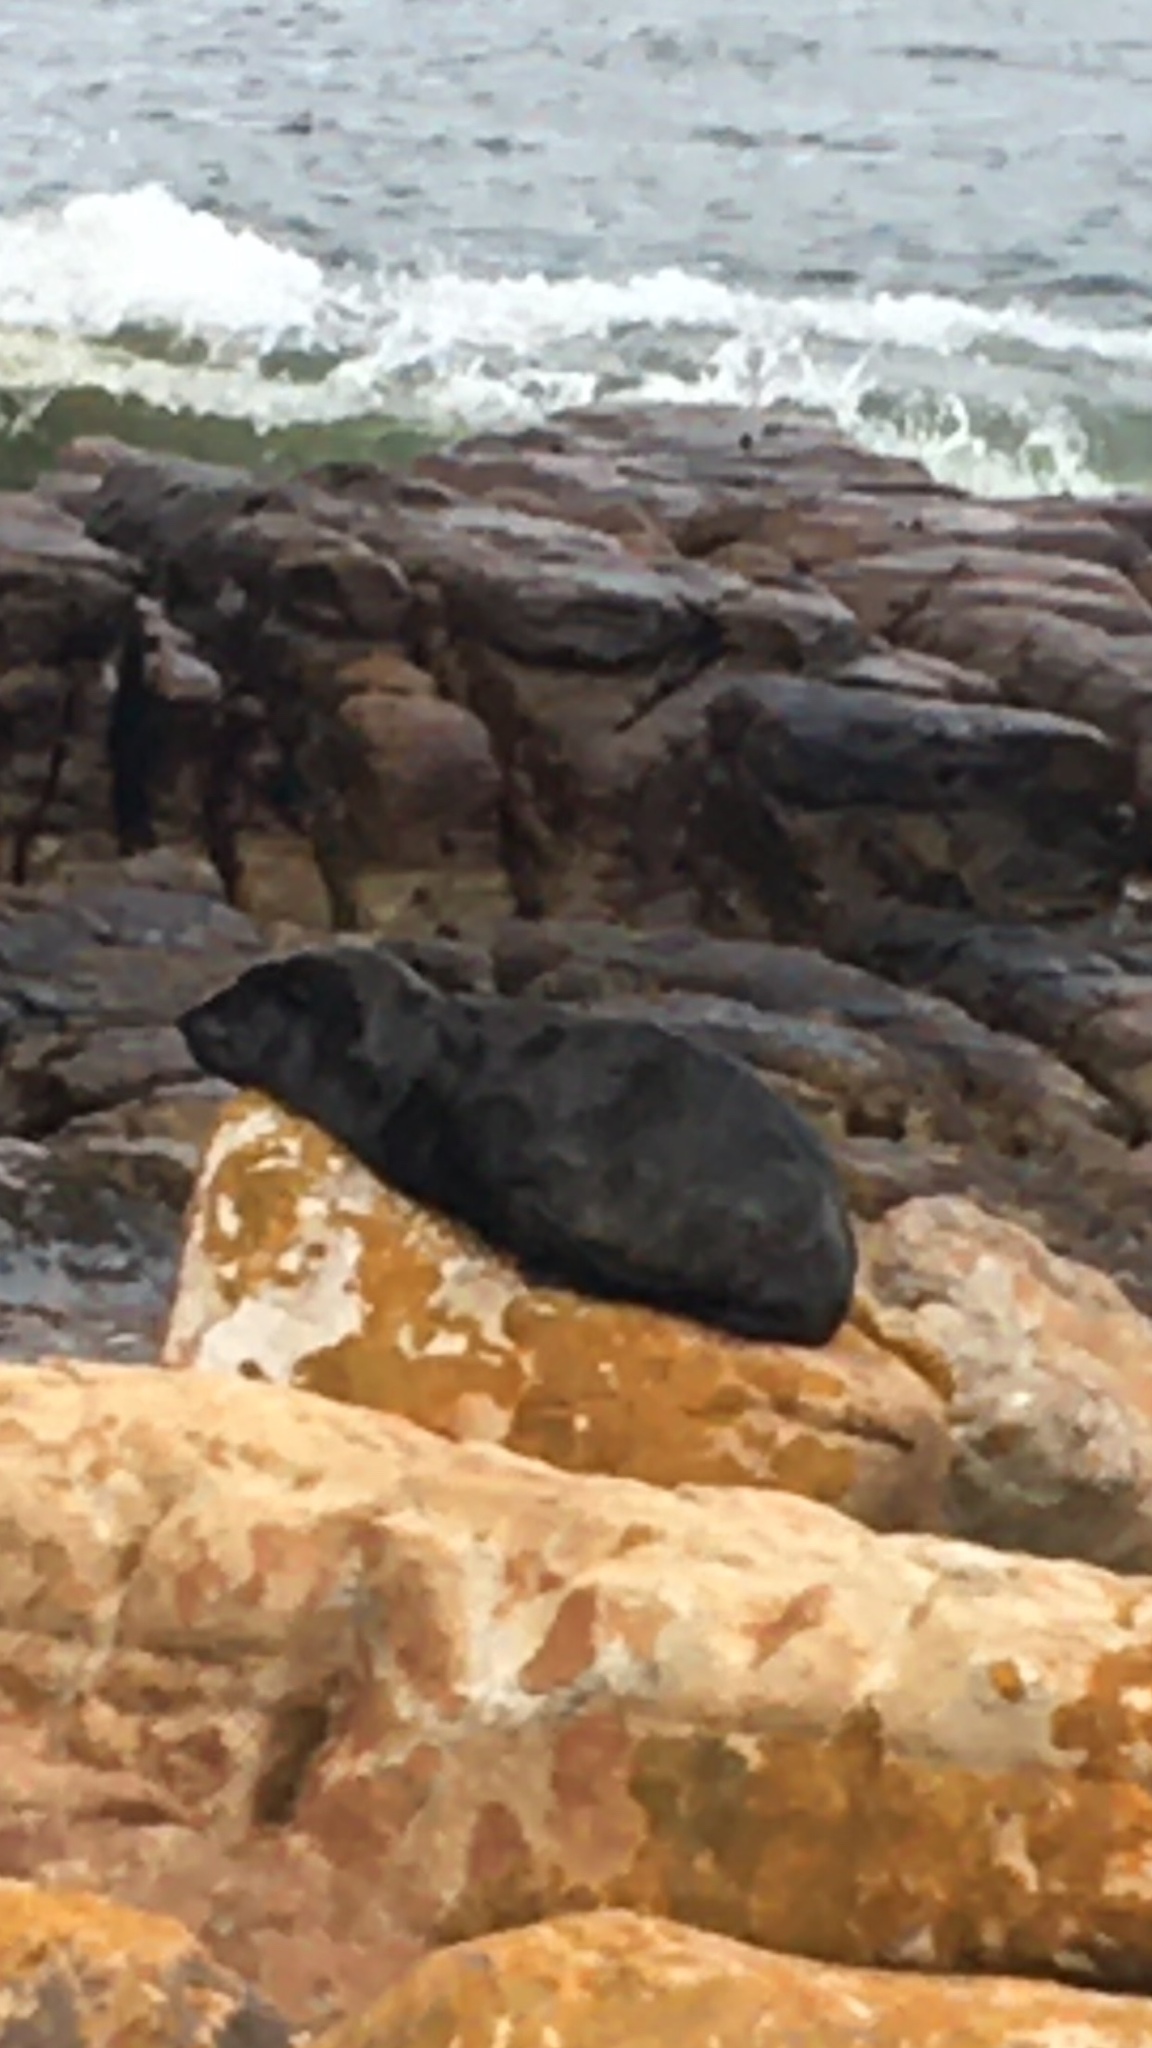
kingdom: Animalia
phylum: Chordata
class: Mammalia
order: Carnivora
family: Otariidae
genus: Arctocephalus
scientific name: Arctocephalus pusillus
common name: Brown fur seal
